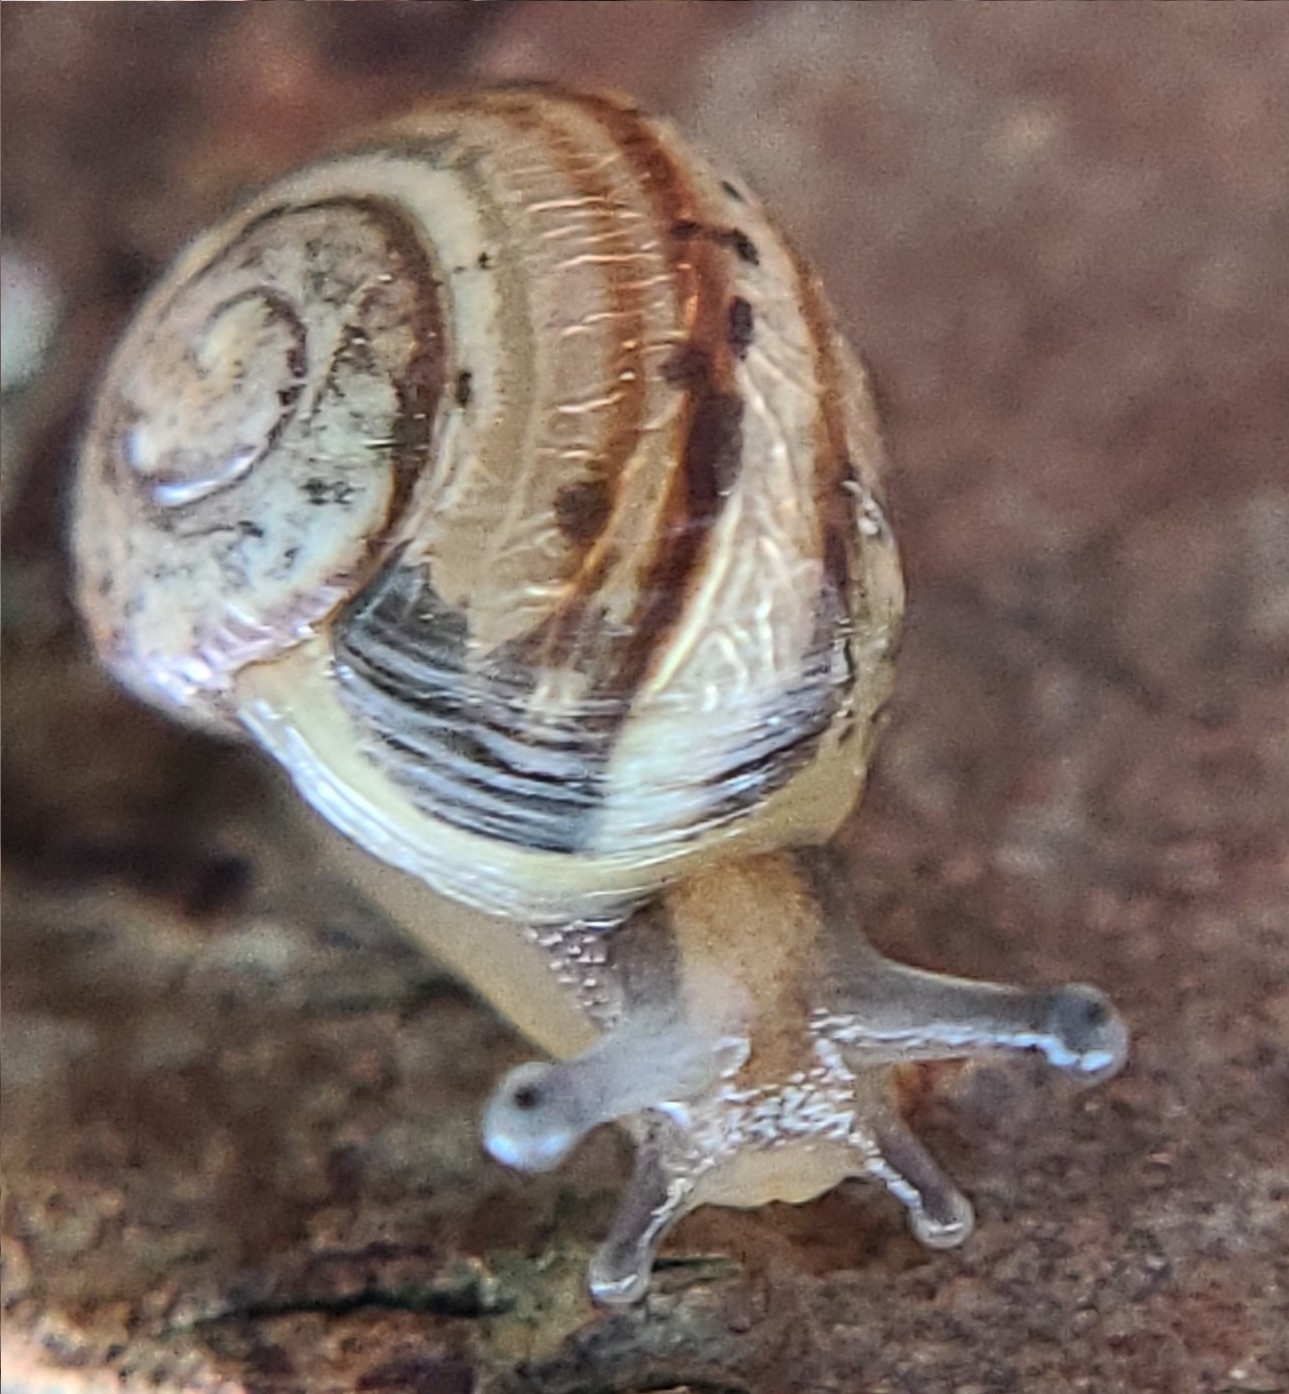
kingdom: Animalia
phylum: Mollusca
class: Gastropoda
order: Stylommatophora
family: Helicidae
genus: Cepaea
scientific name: Cepaea hortensis
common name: White-lip gardensnail
